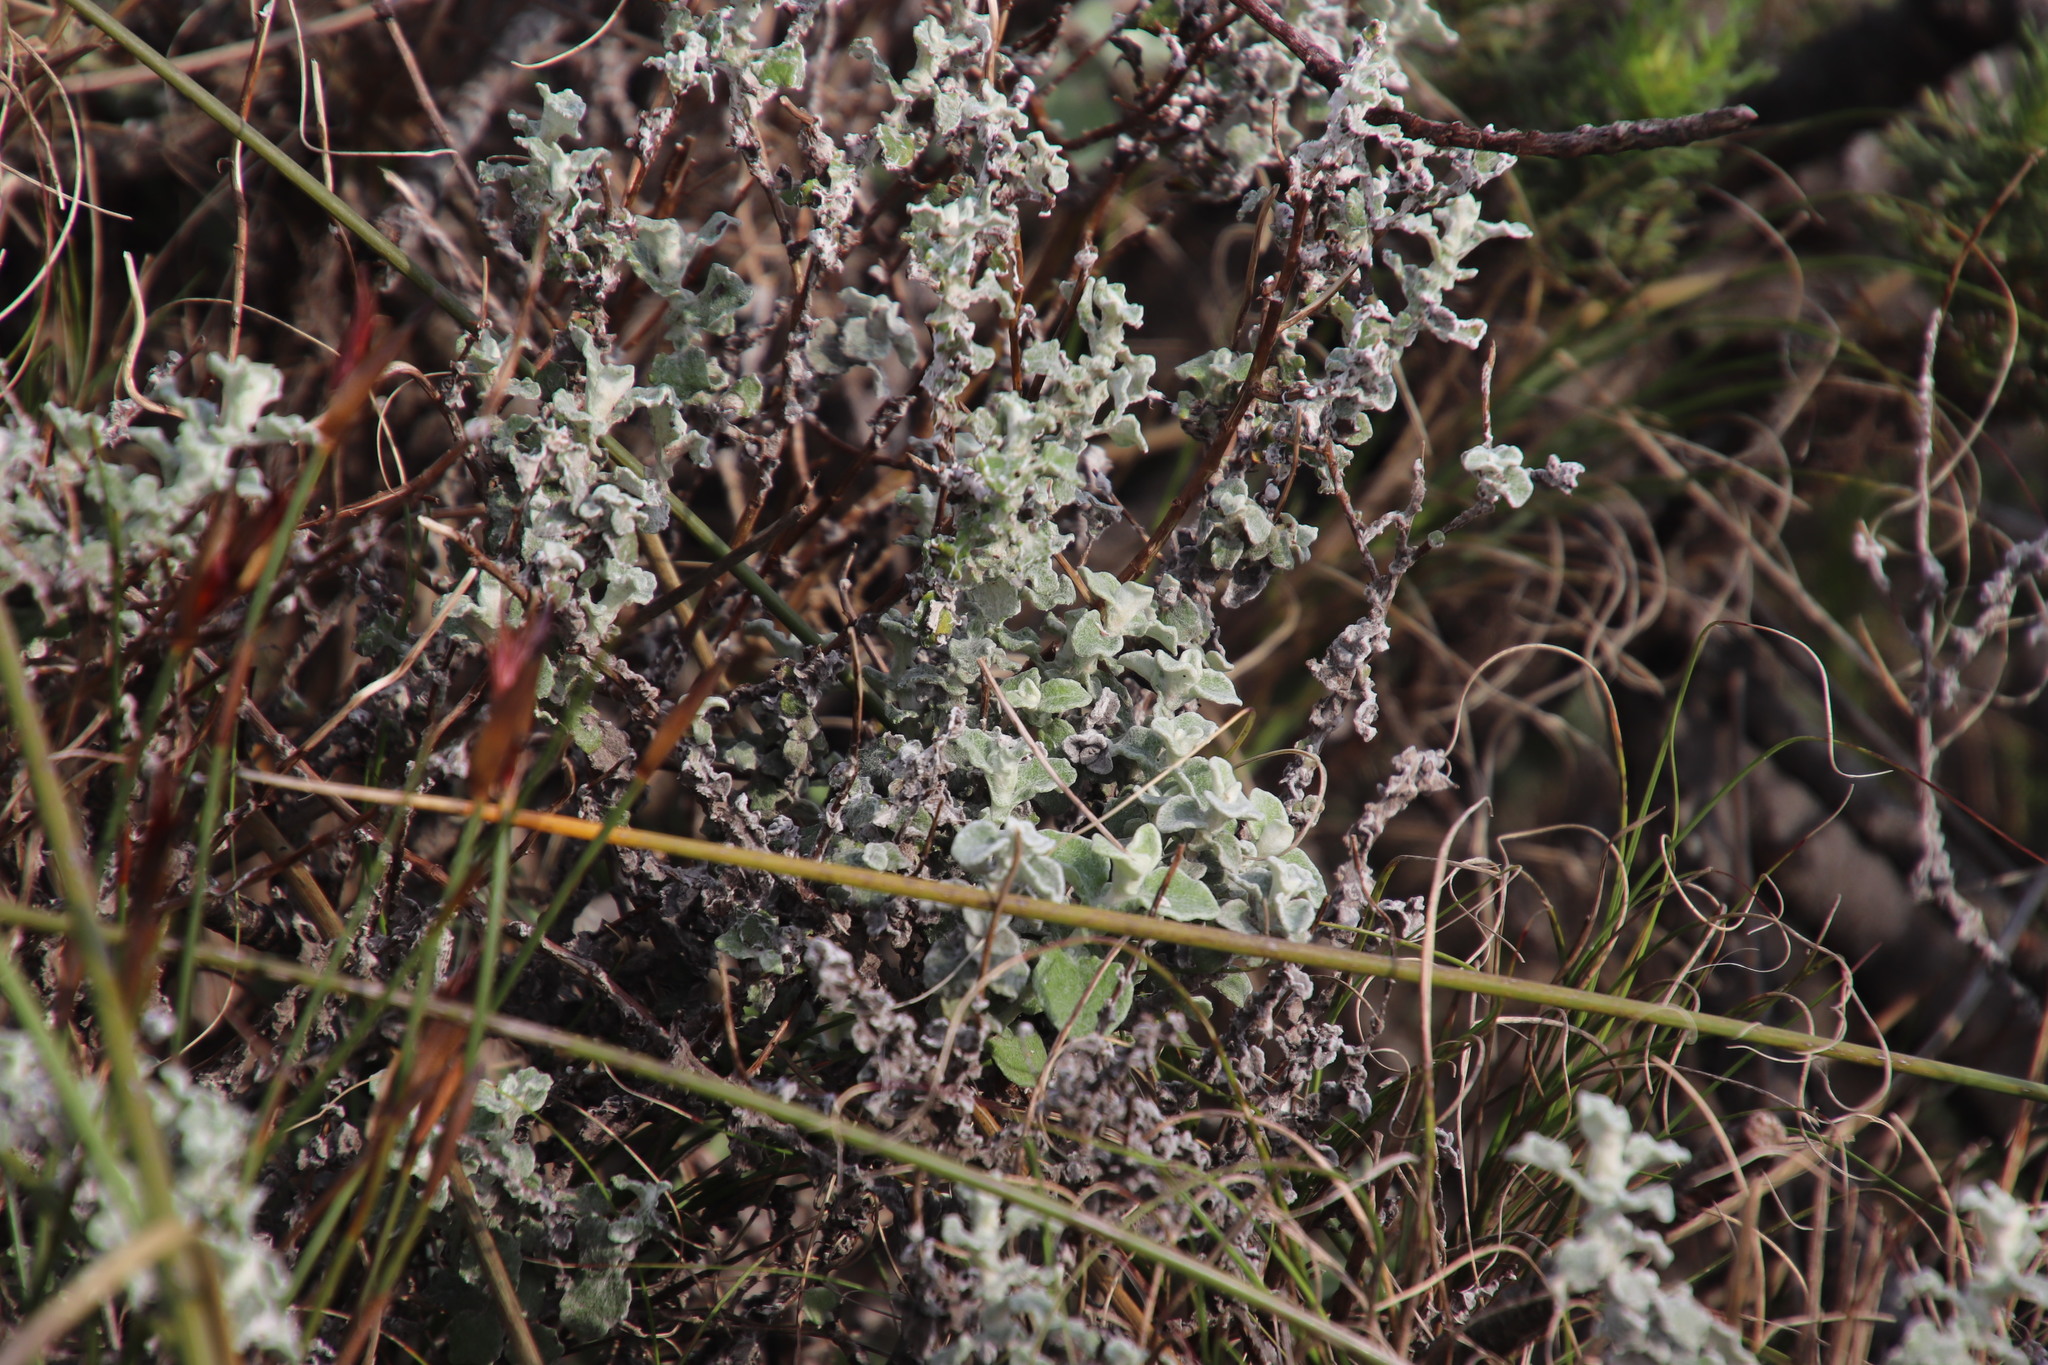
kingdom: Plantae
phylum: Tracheophyta
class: Magnoliopsida
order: Asterales
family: Asteraceae
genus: Helichrysum
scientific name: Helichrysum patulum
